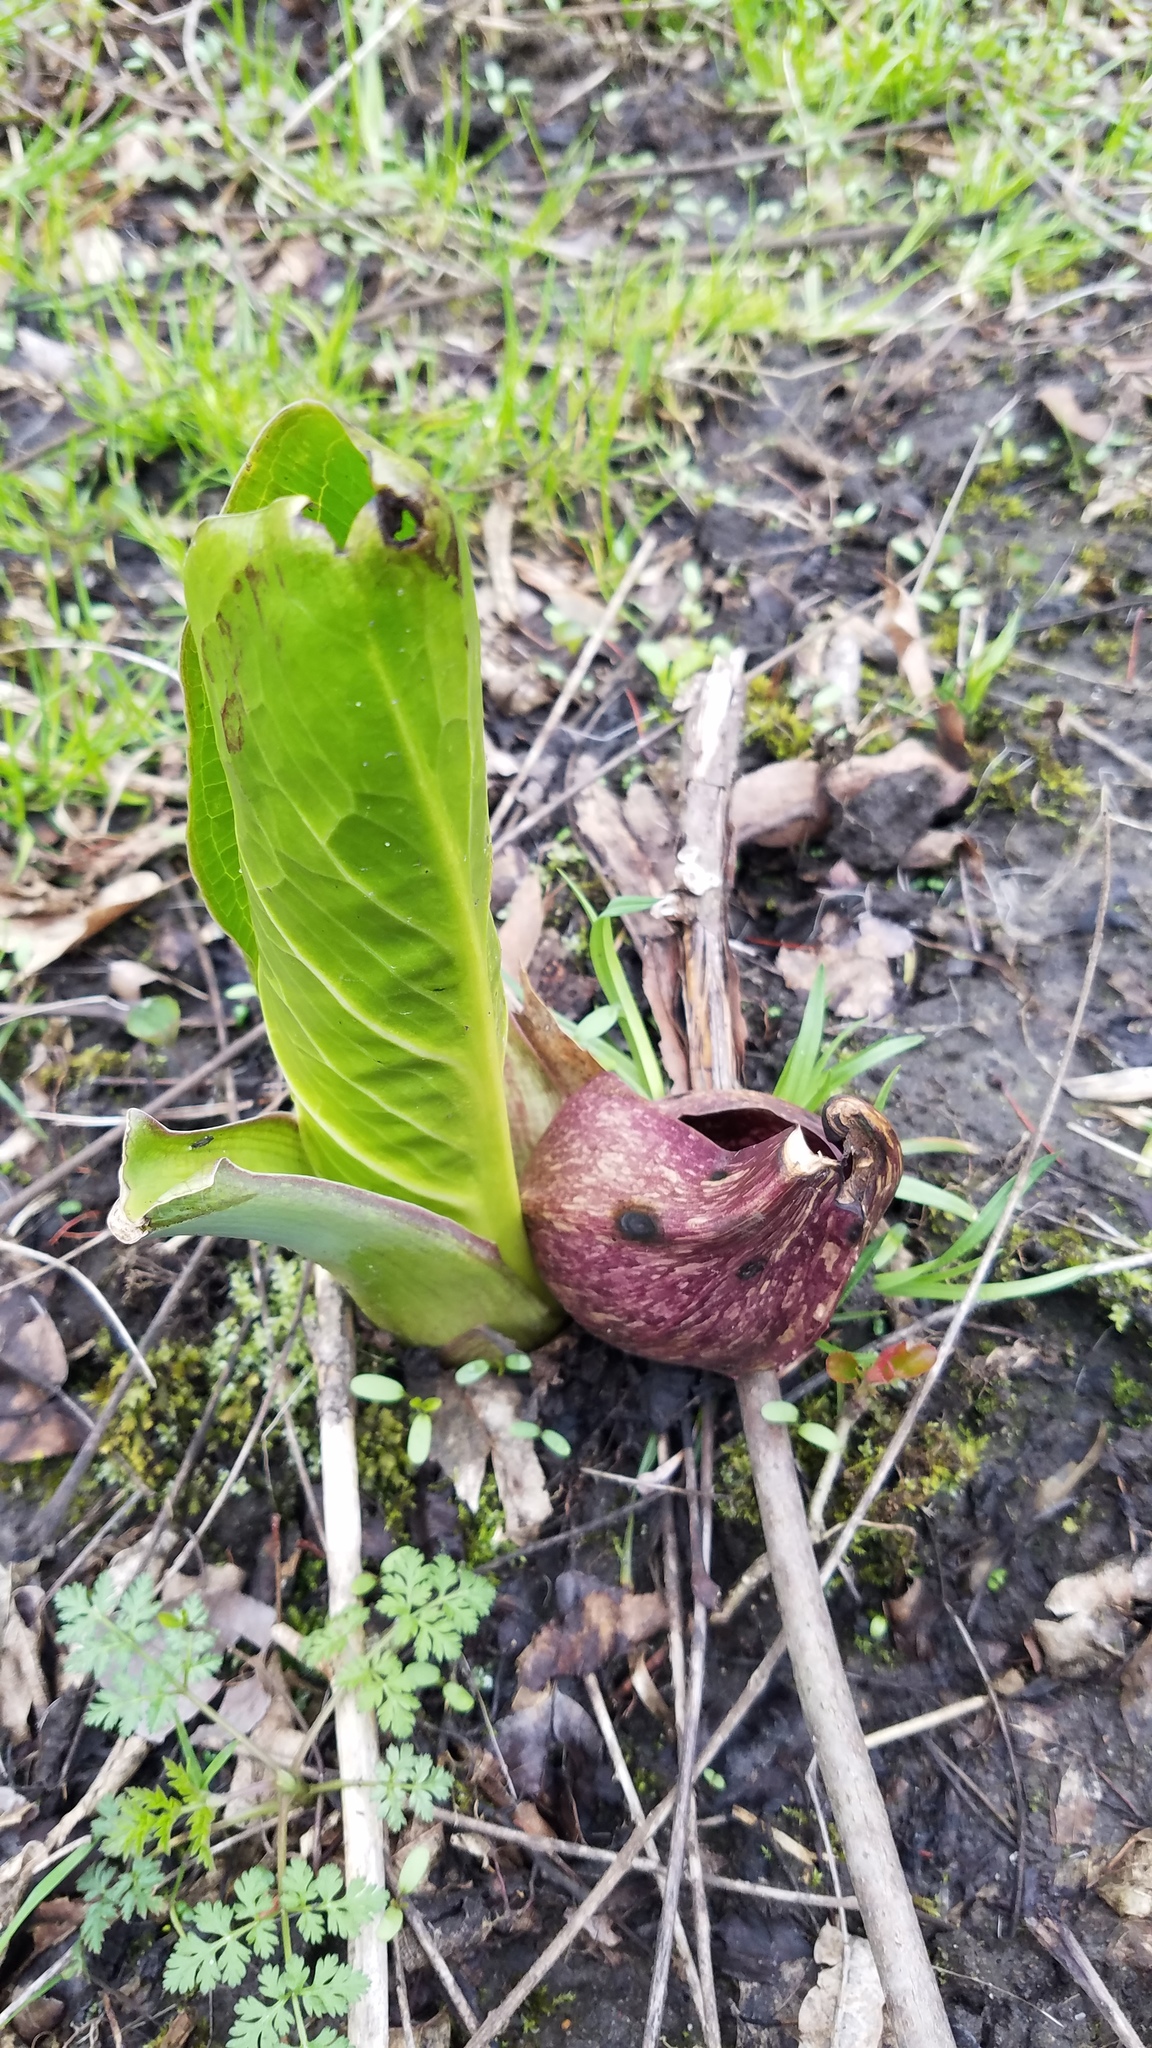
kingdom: Plantae
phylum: Tracheophyta
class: Liliopsida
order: Alismatales
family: Araceae
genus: Symplocarpus
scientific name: Symplocarpus foetidus
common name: Eastern skunk cabbage
